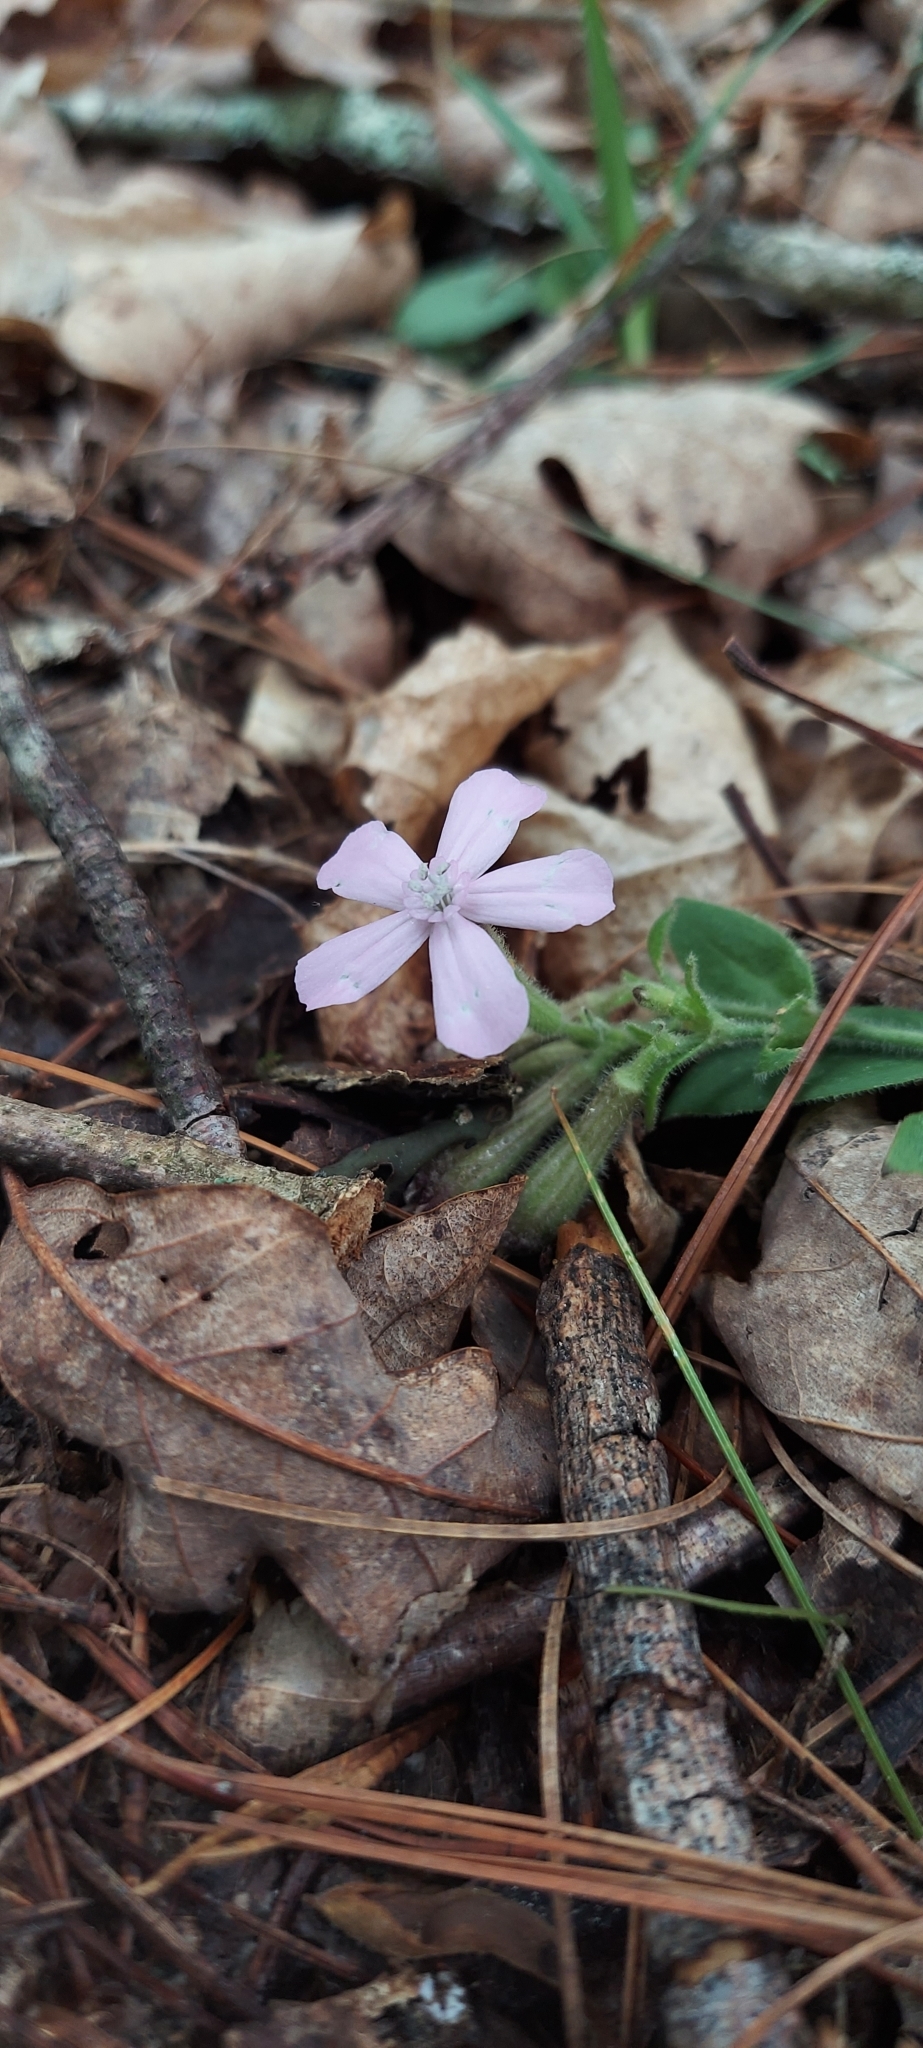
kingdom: Plantae
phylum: Tracheophyta
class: Magnoliopsida
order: Caryophyllales
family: Caryophyllaceae
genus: Silene
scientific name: Silene caroliniana
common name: Sticky catchfly
